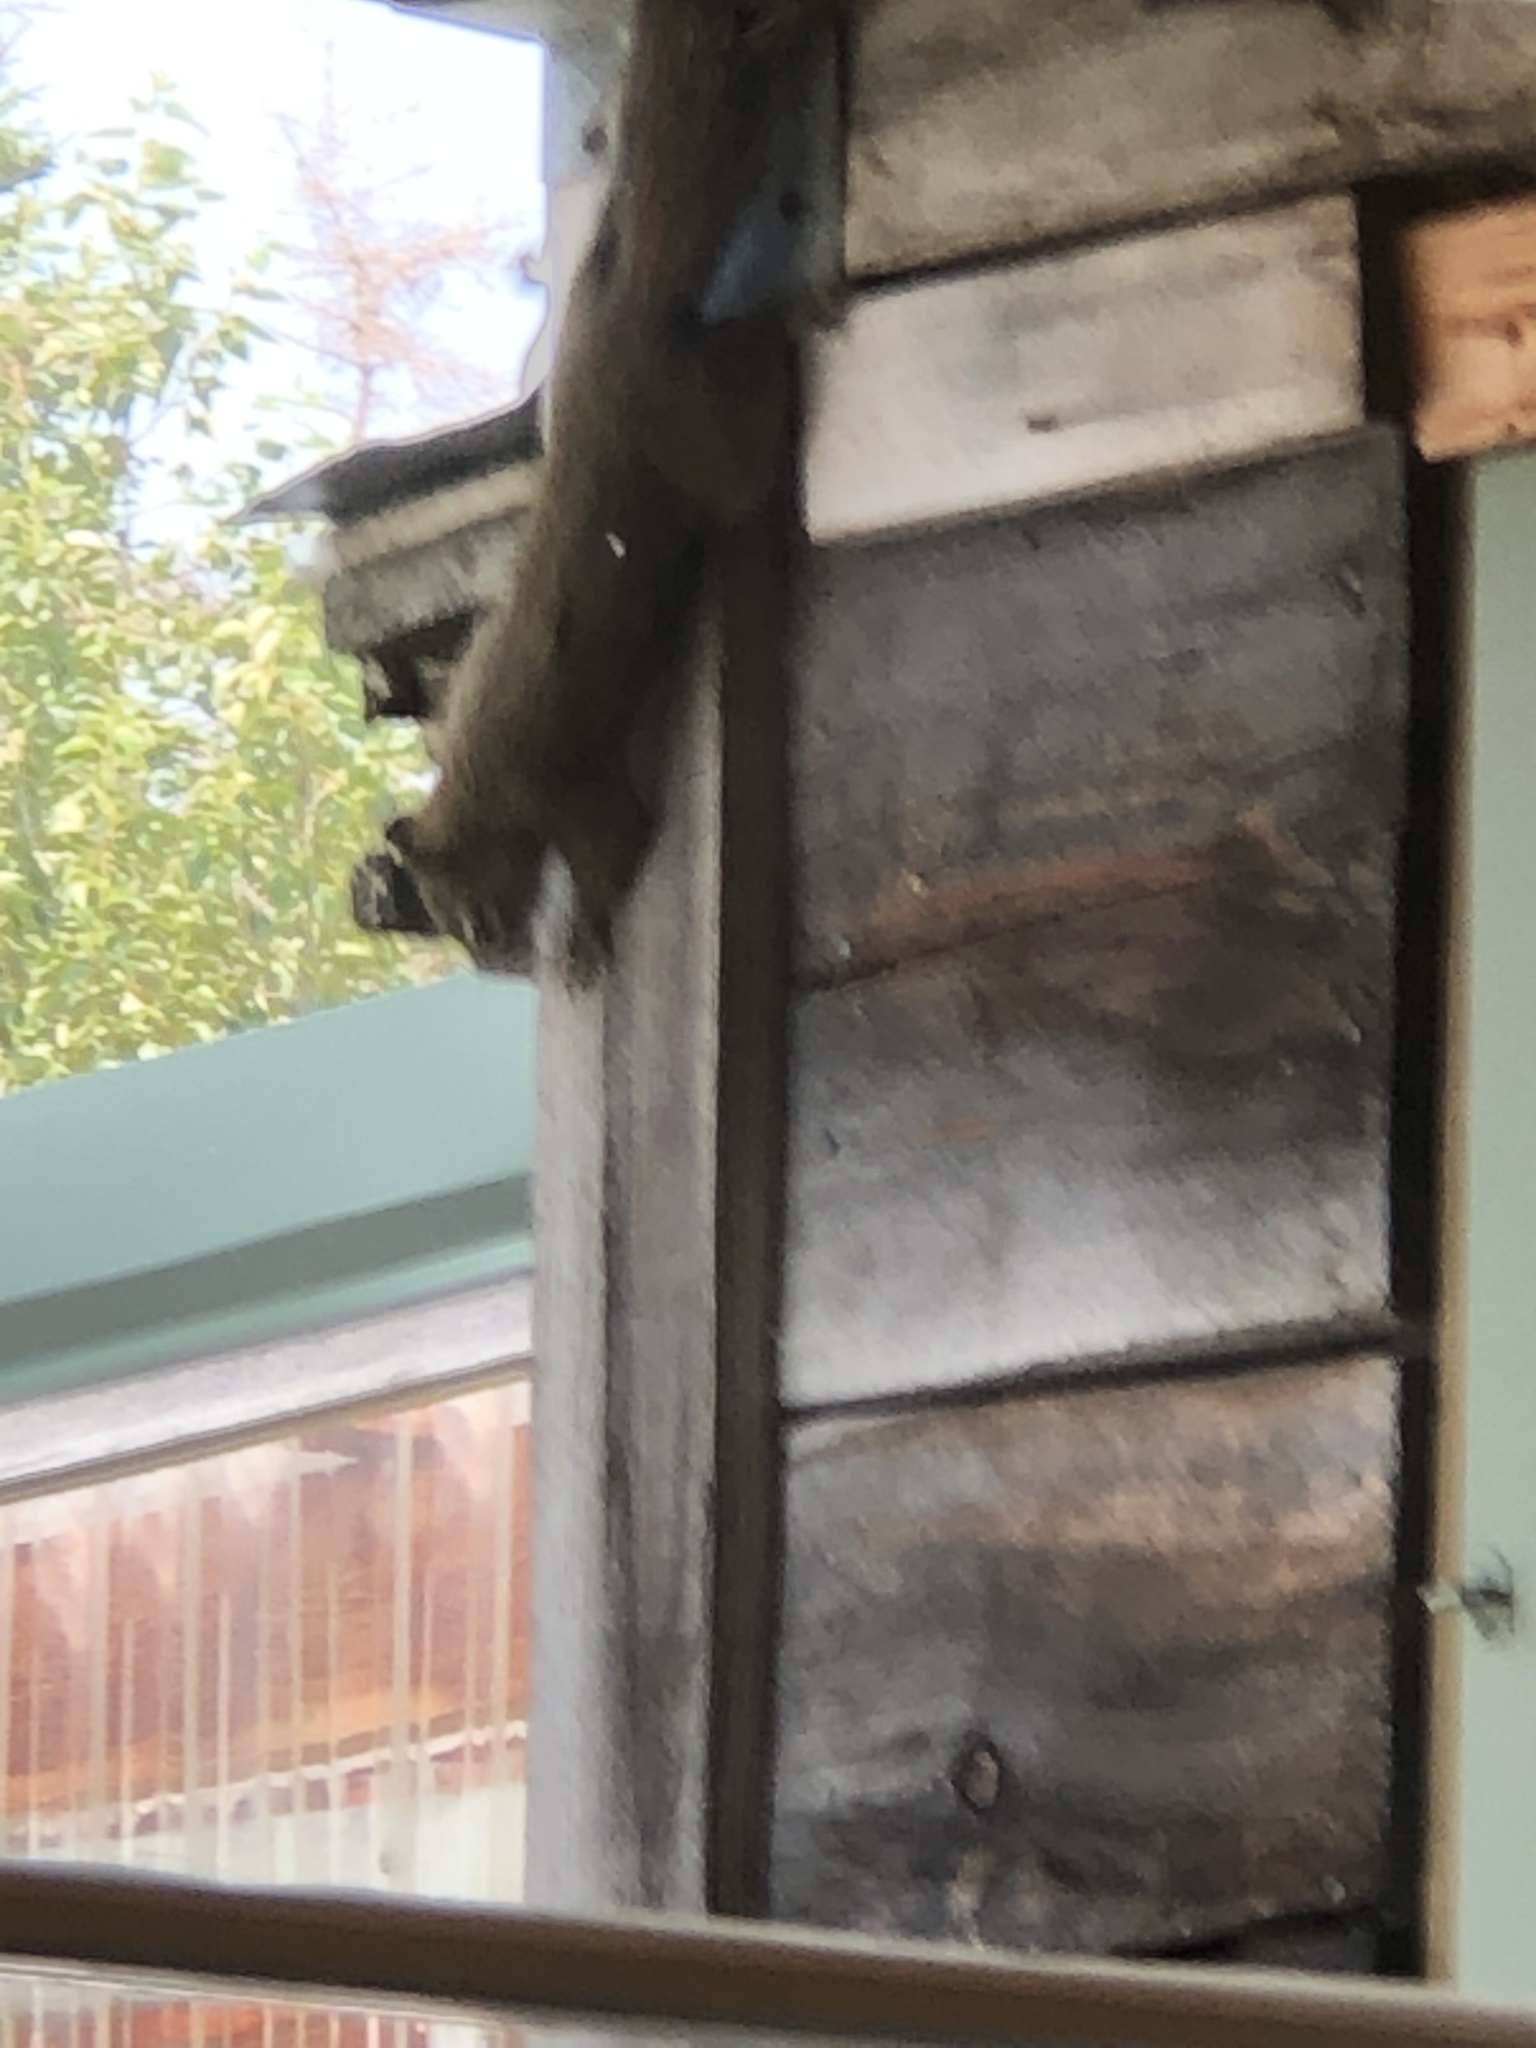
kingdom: Animalia
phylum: Chordata
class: Mammalia
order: Rodentia
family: Sciuridae
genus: Tamiasciurus
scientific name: Tamiasciurus hudsonicus
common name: Red squirrel
